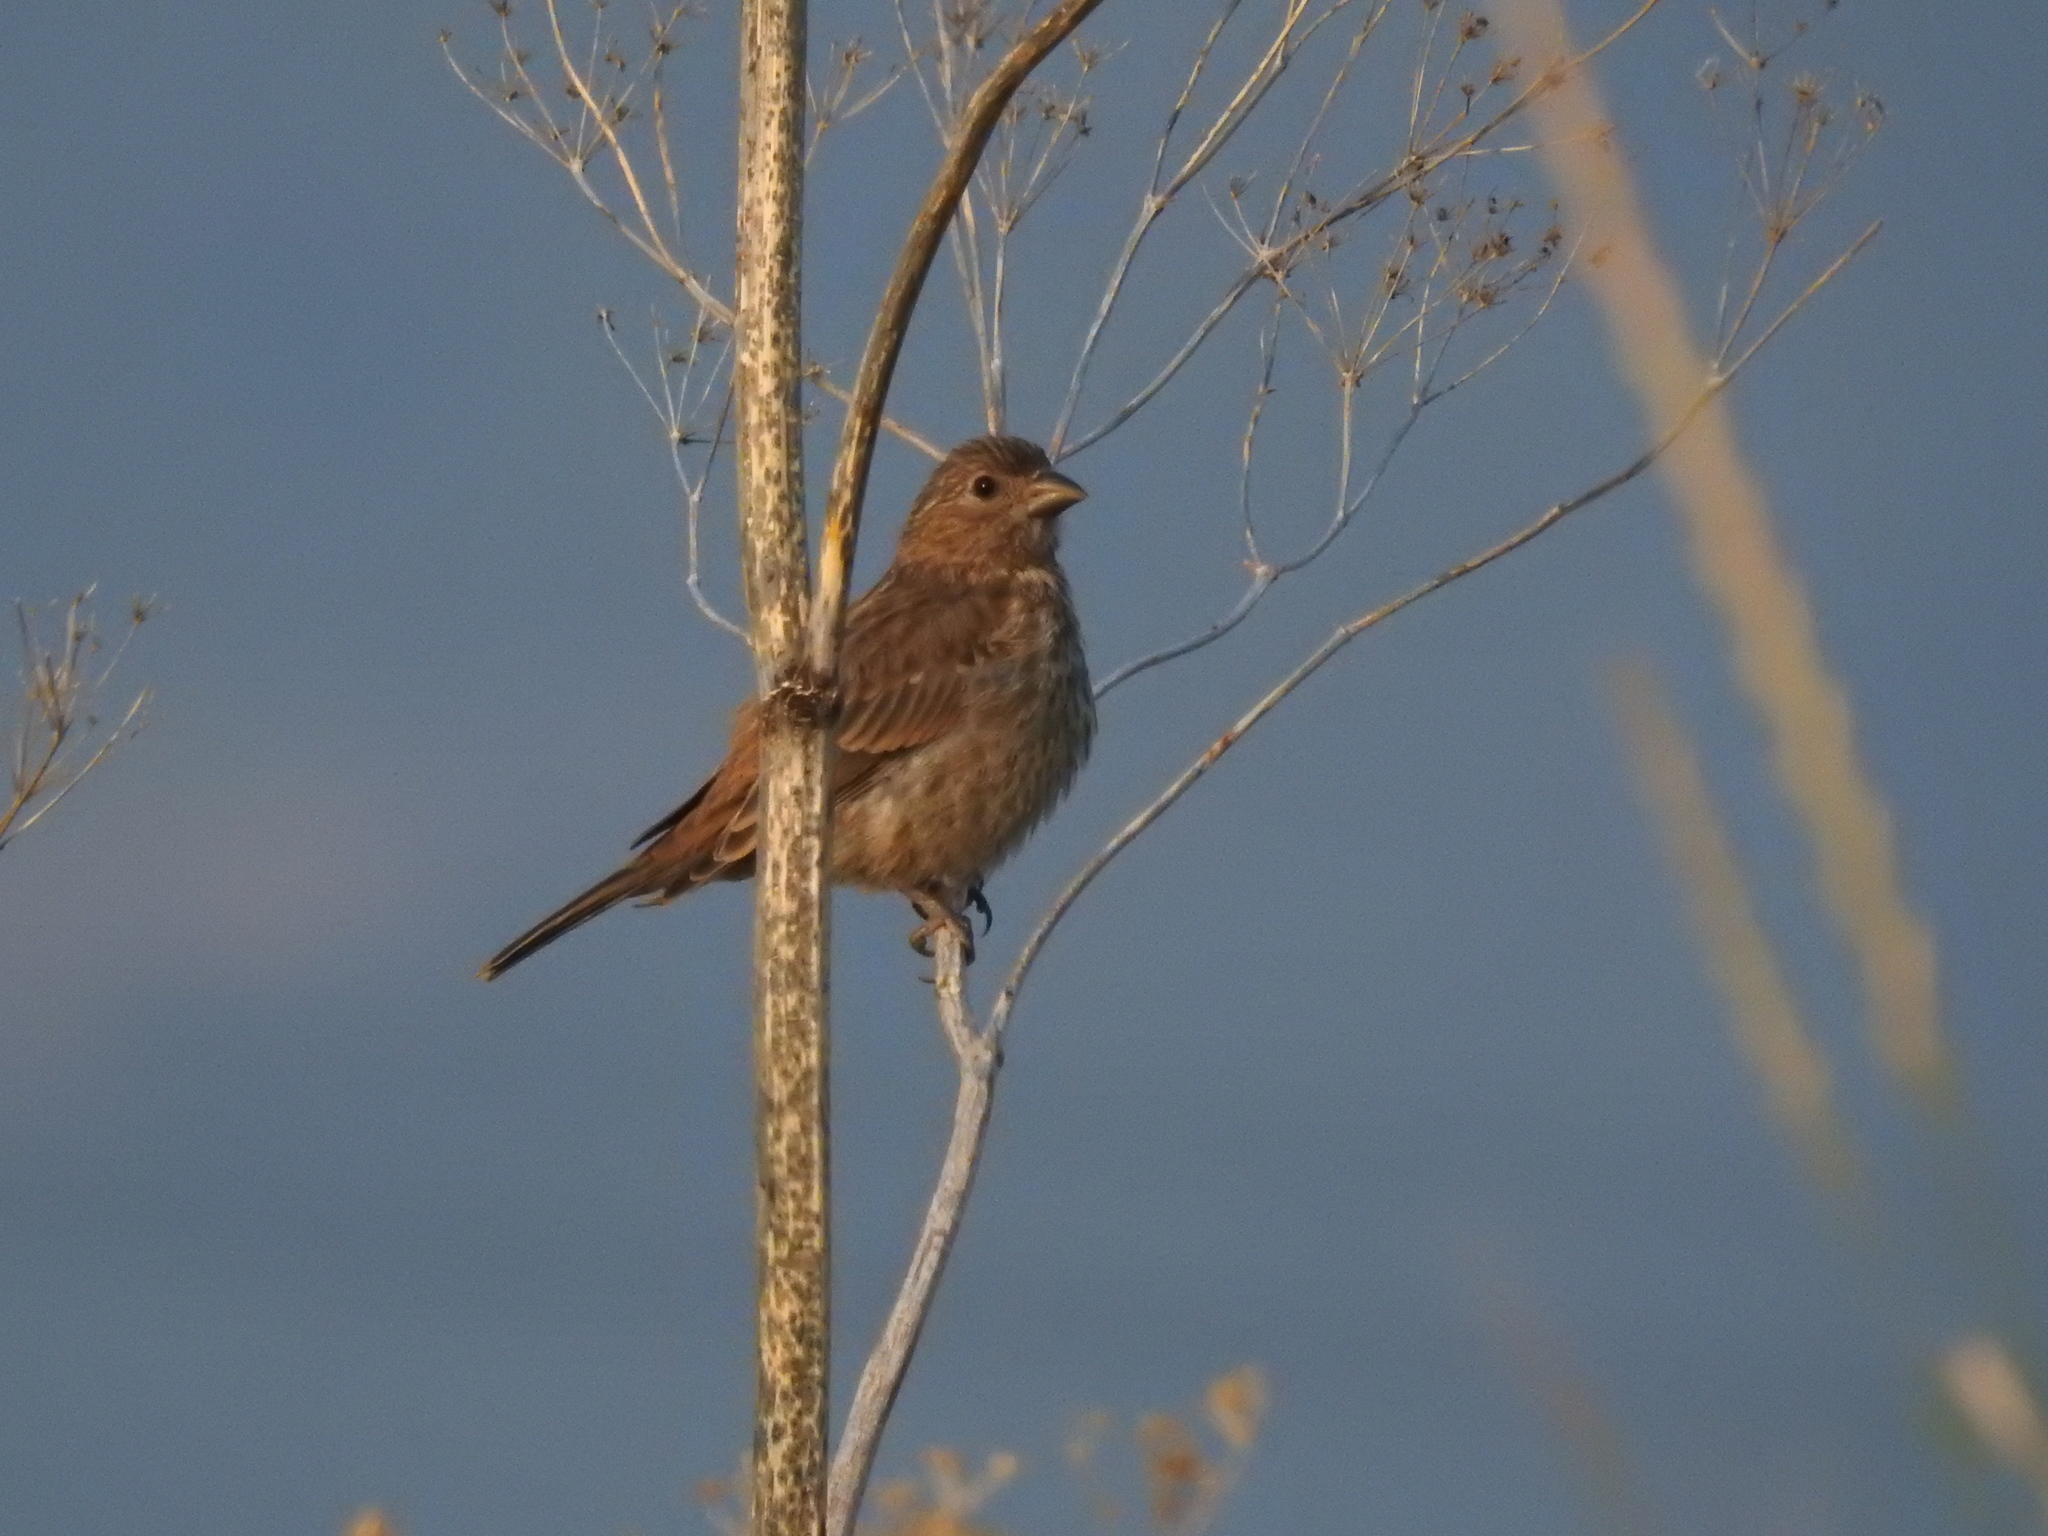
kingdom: Animalia
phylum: Chordata
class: Aves
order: Passeriformes
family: Fringillidae
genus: Haemorhous
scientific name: Haemorhous mexicanus
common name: House finch
